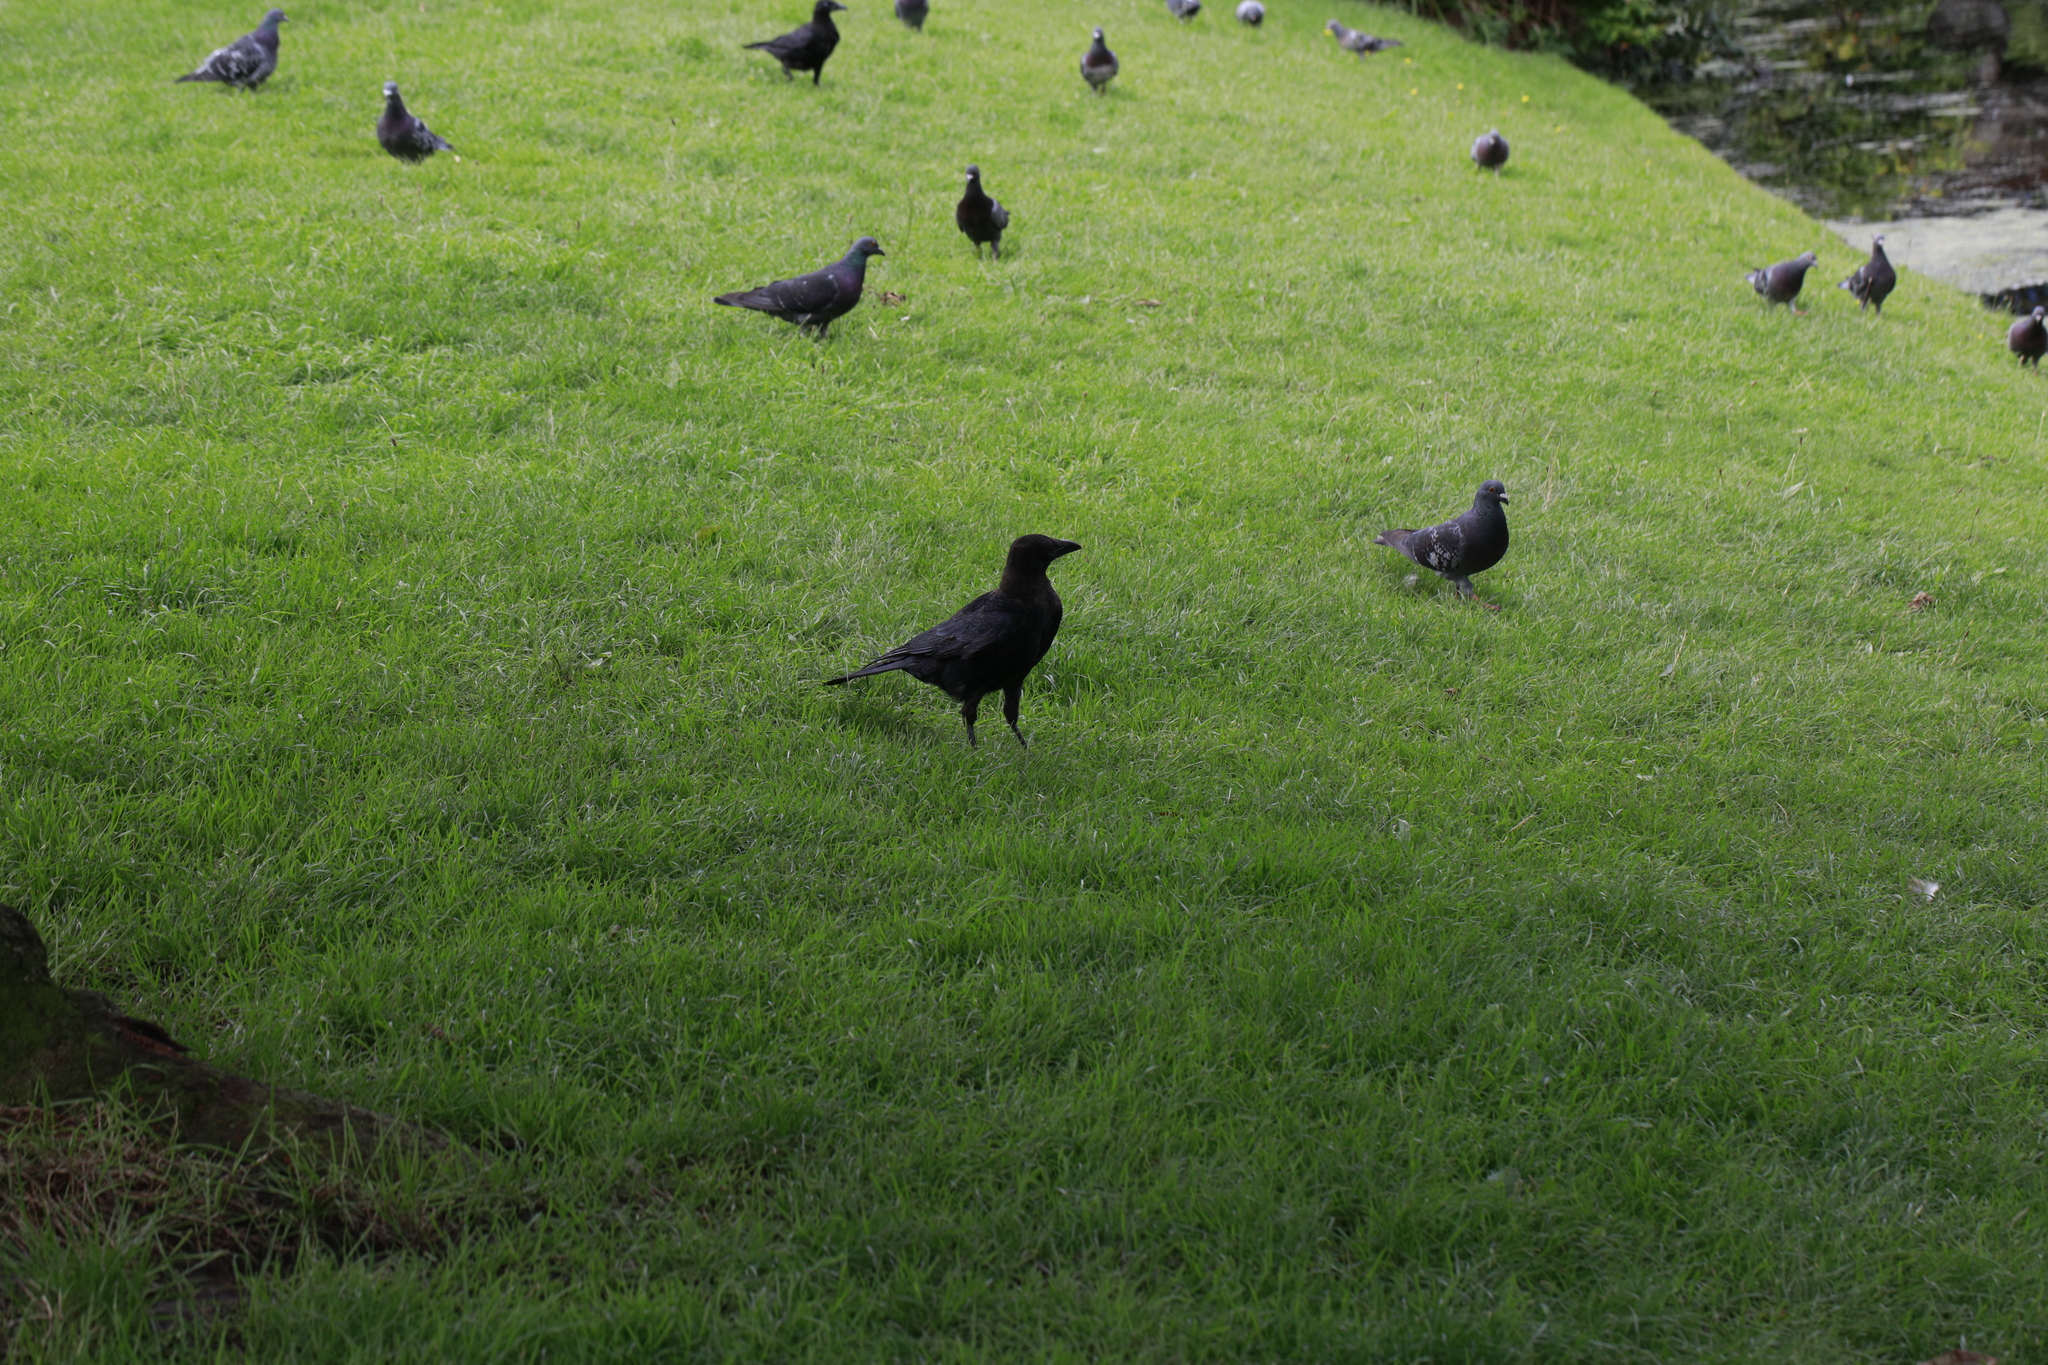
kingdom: Animalia
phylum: Chordata
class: Aves
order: Passeriformes
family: Corvidae
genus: Corvus
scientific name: Corvus corone
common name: Carrion crow
